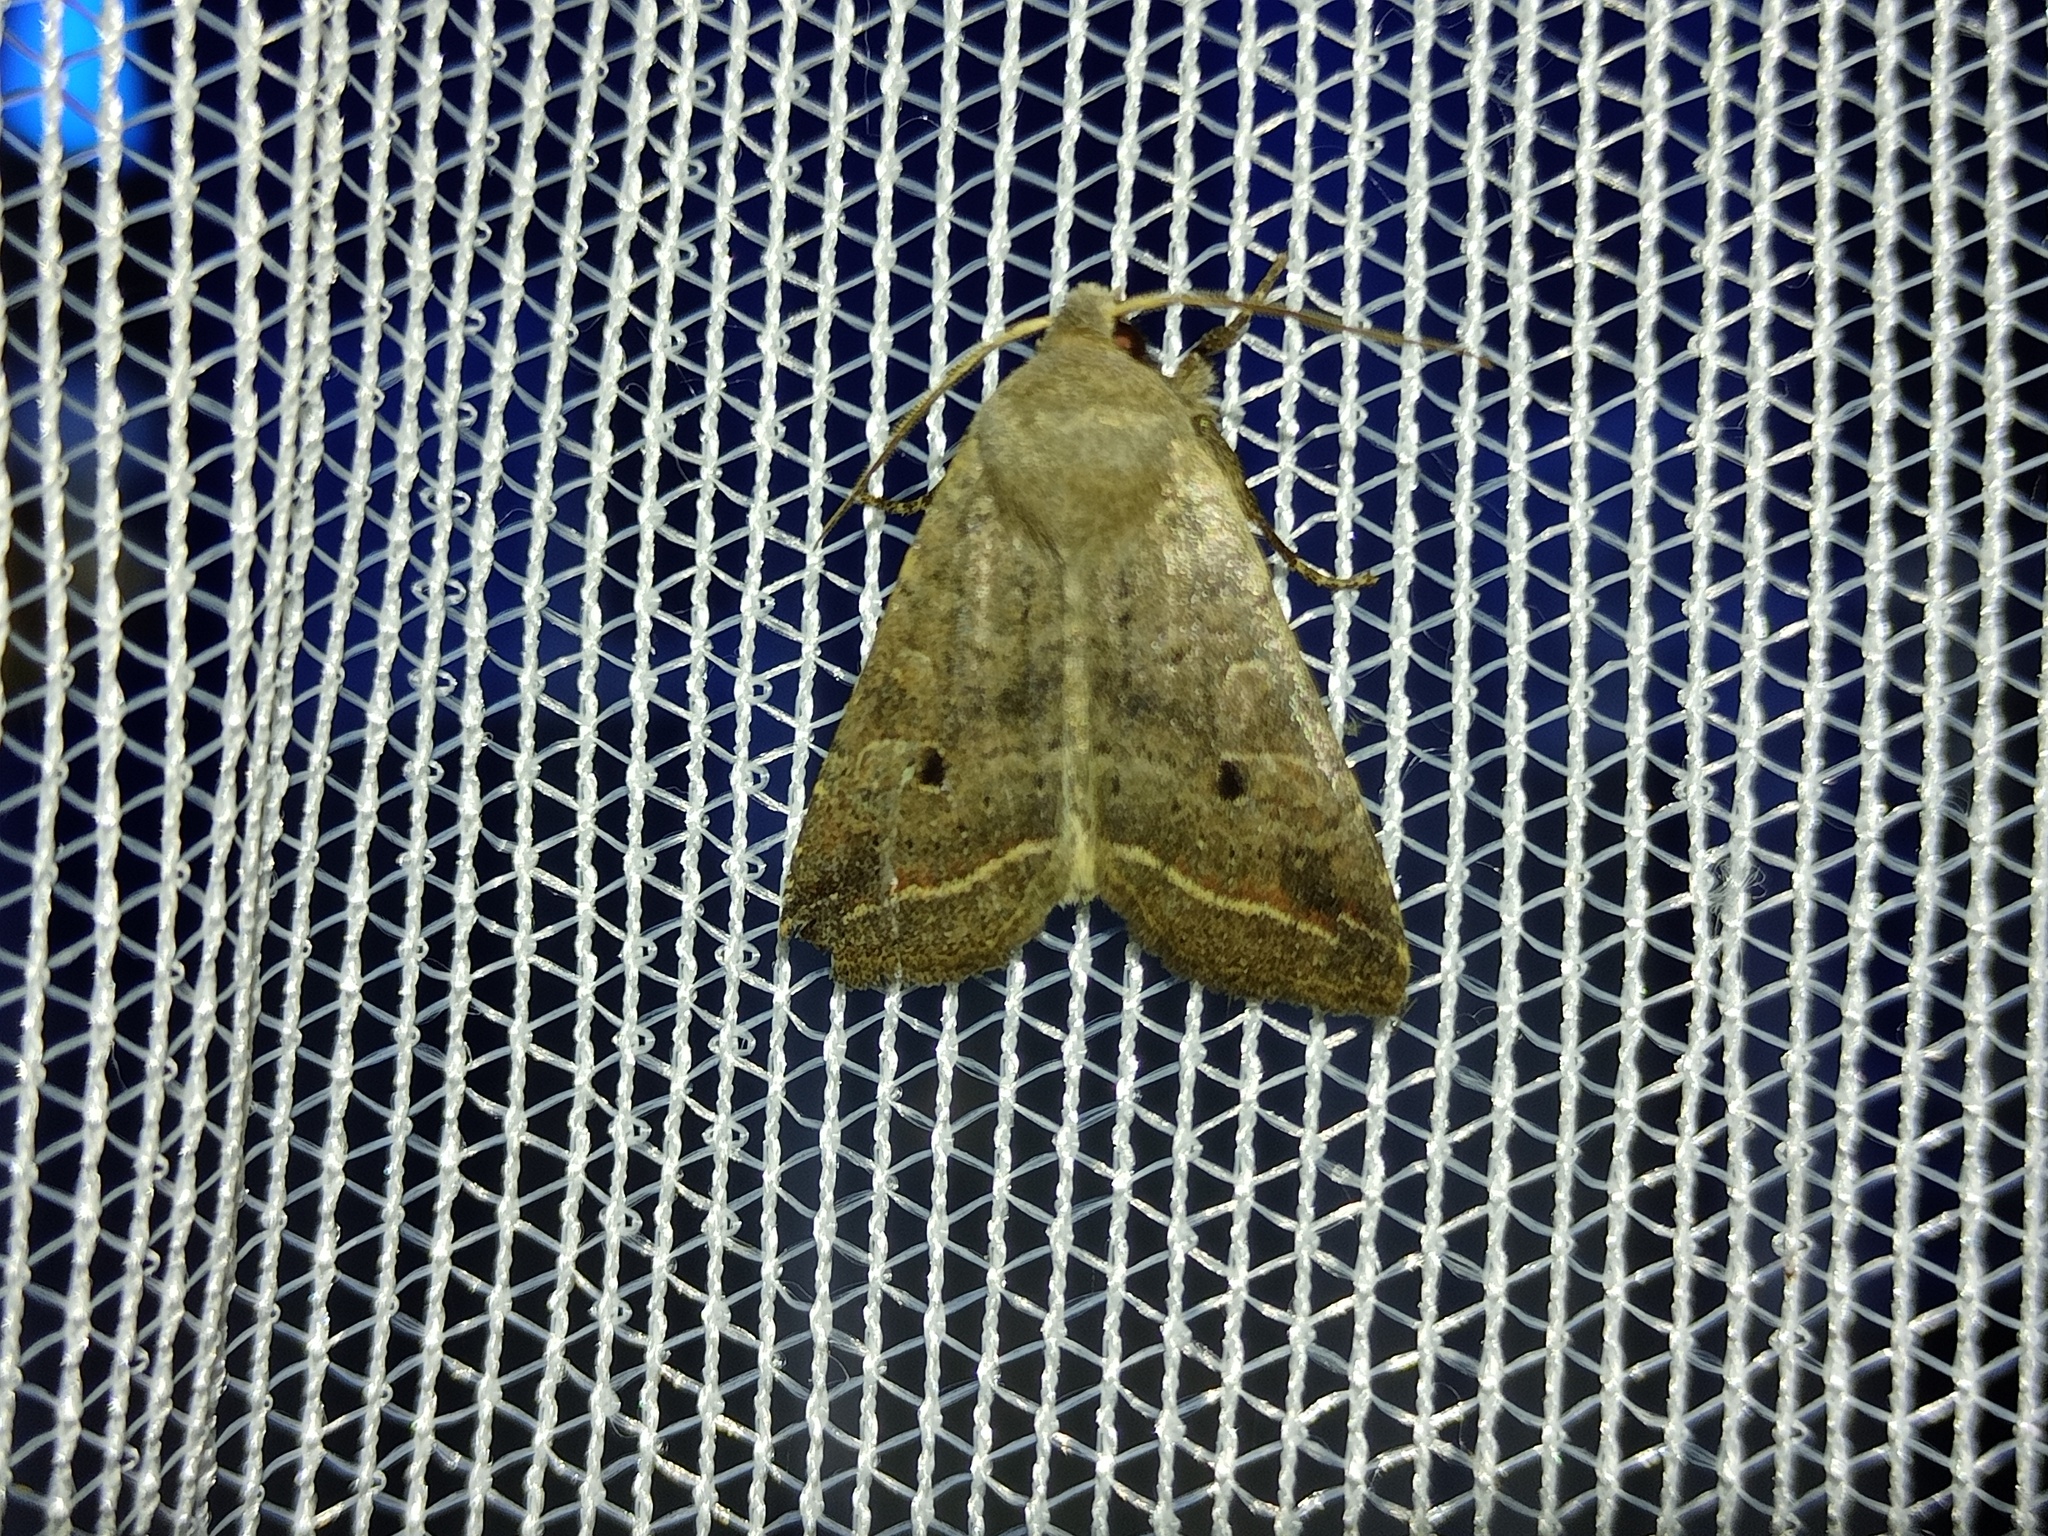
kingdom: Animalia
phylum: Arthropoda
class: Insecta
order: Lepidoptera
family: Noctuidae
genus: Agrochola
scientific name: Agrochola lota
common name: Red-line quaker
